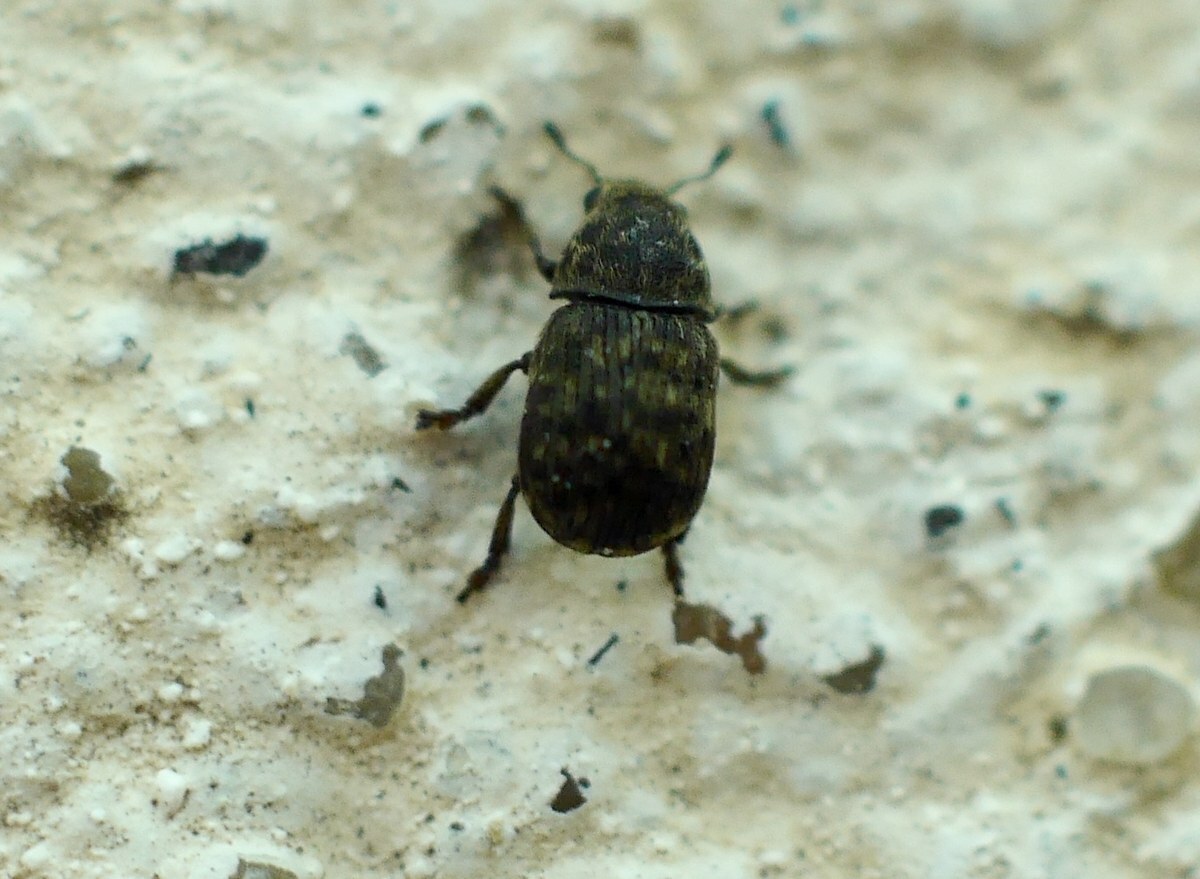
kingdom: Animalia
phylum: Arthropoda
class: Insecta
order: Coleoptera
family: Anthribidae
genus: Anthribus
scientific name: Anthribus nebulosus
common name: Fungus weevil
